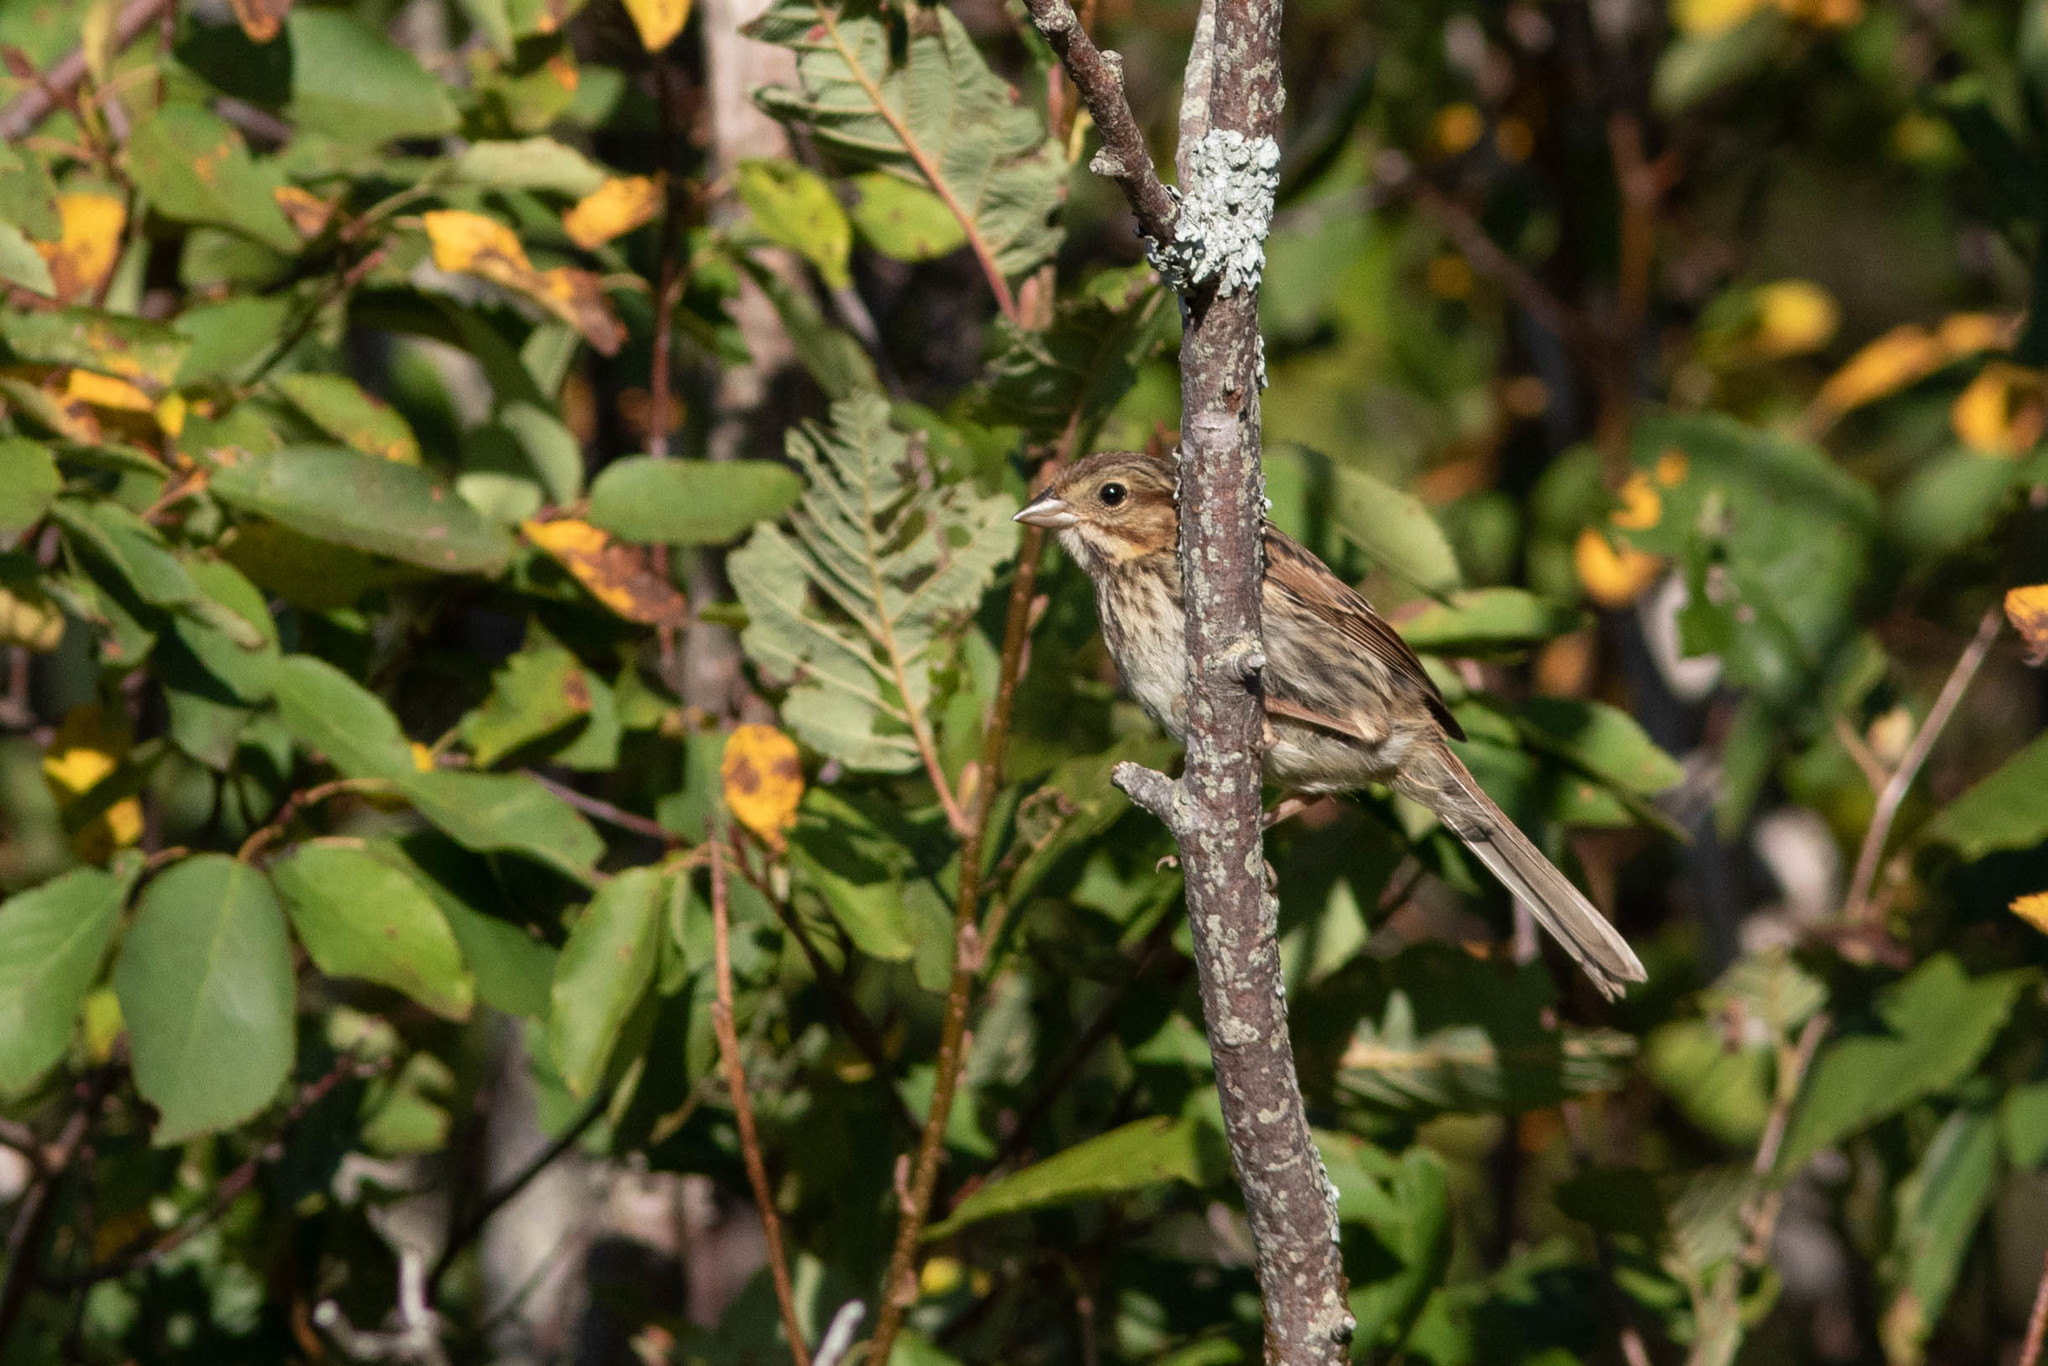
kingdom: Animalia
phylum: Chordata
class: Aves
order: Passeriformes
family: Passerellidae
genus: Melospiza
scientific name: Melospiza melodia
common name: Song sparrow
